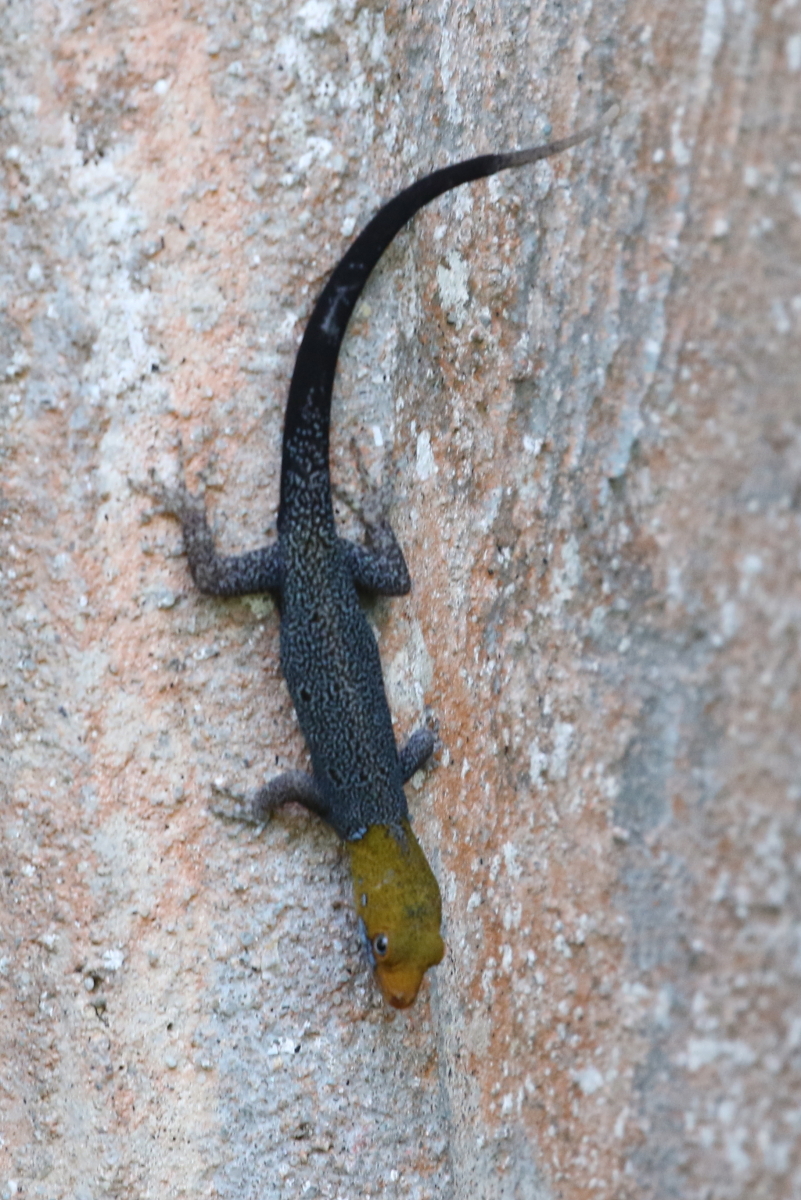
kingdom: Animalia
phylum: Chordata
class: Squamata
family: Sphaerodactylidae
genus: Gonatodes
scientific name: Gonatodes albogularis
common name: Yellow-headed gecko
